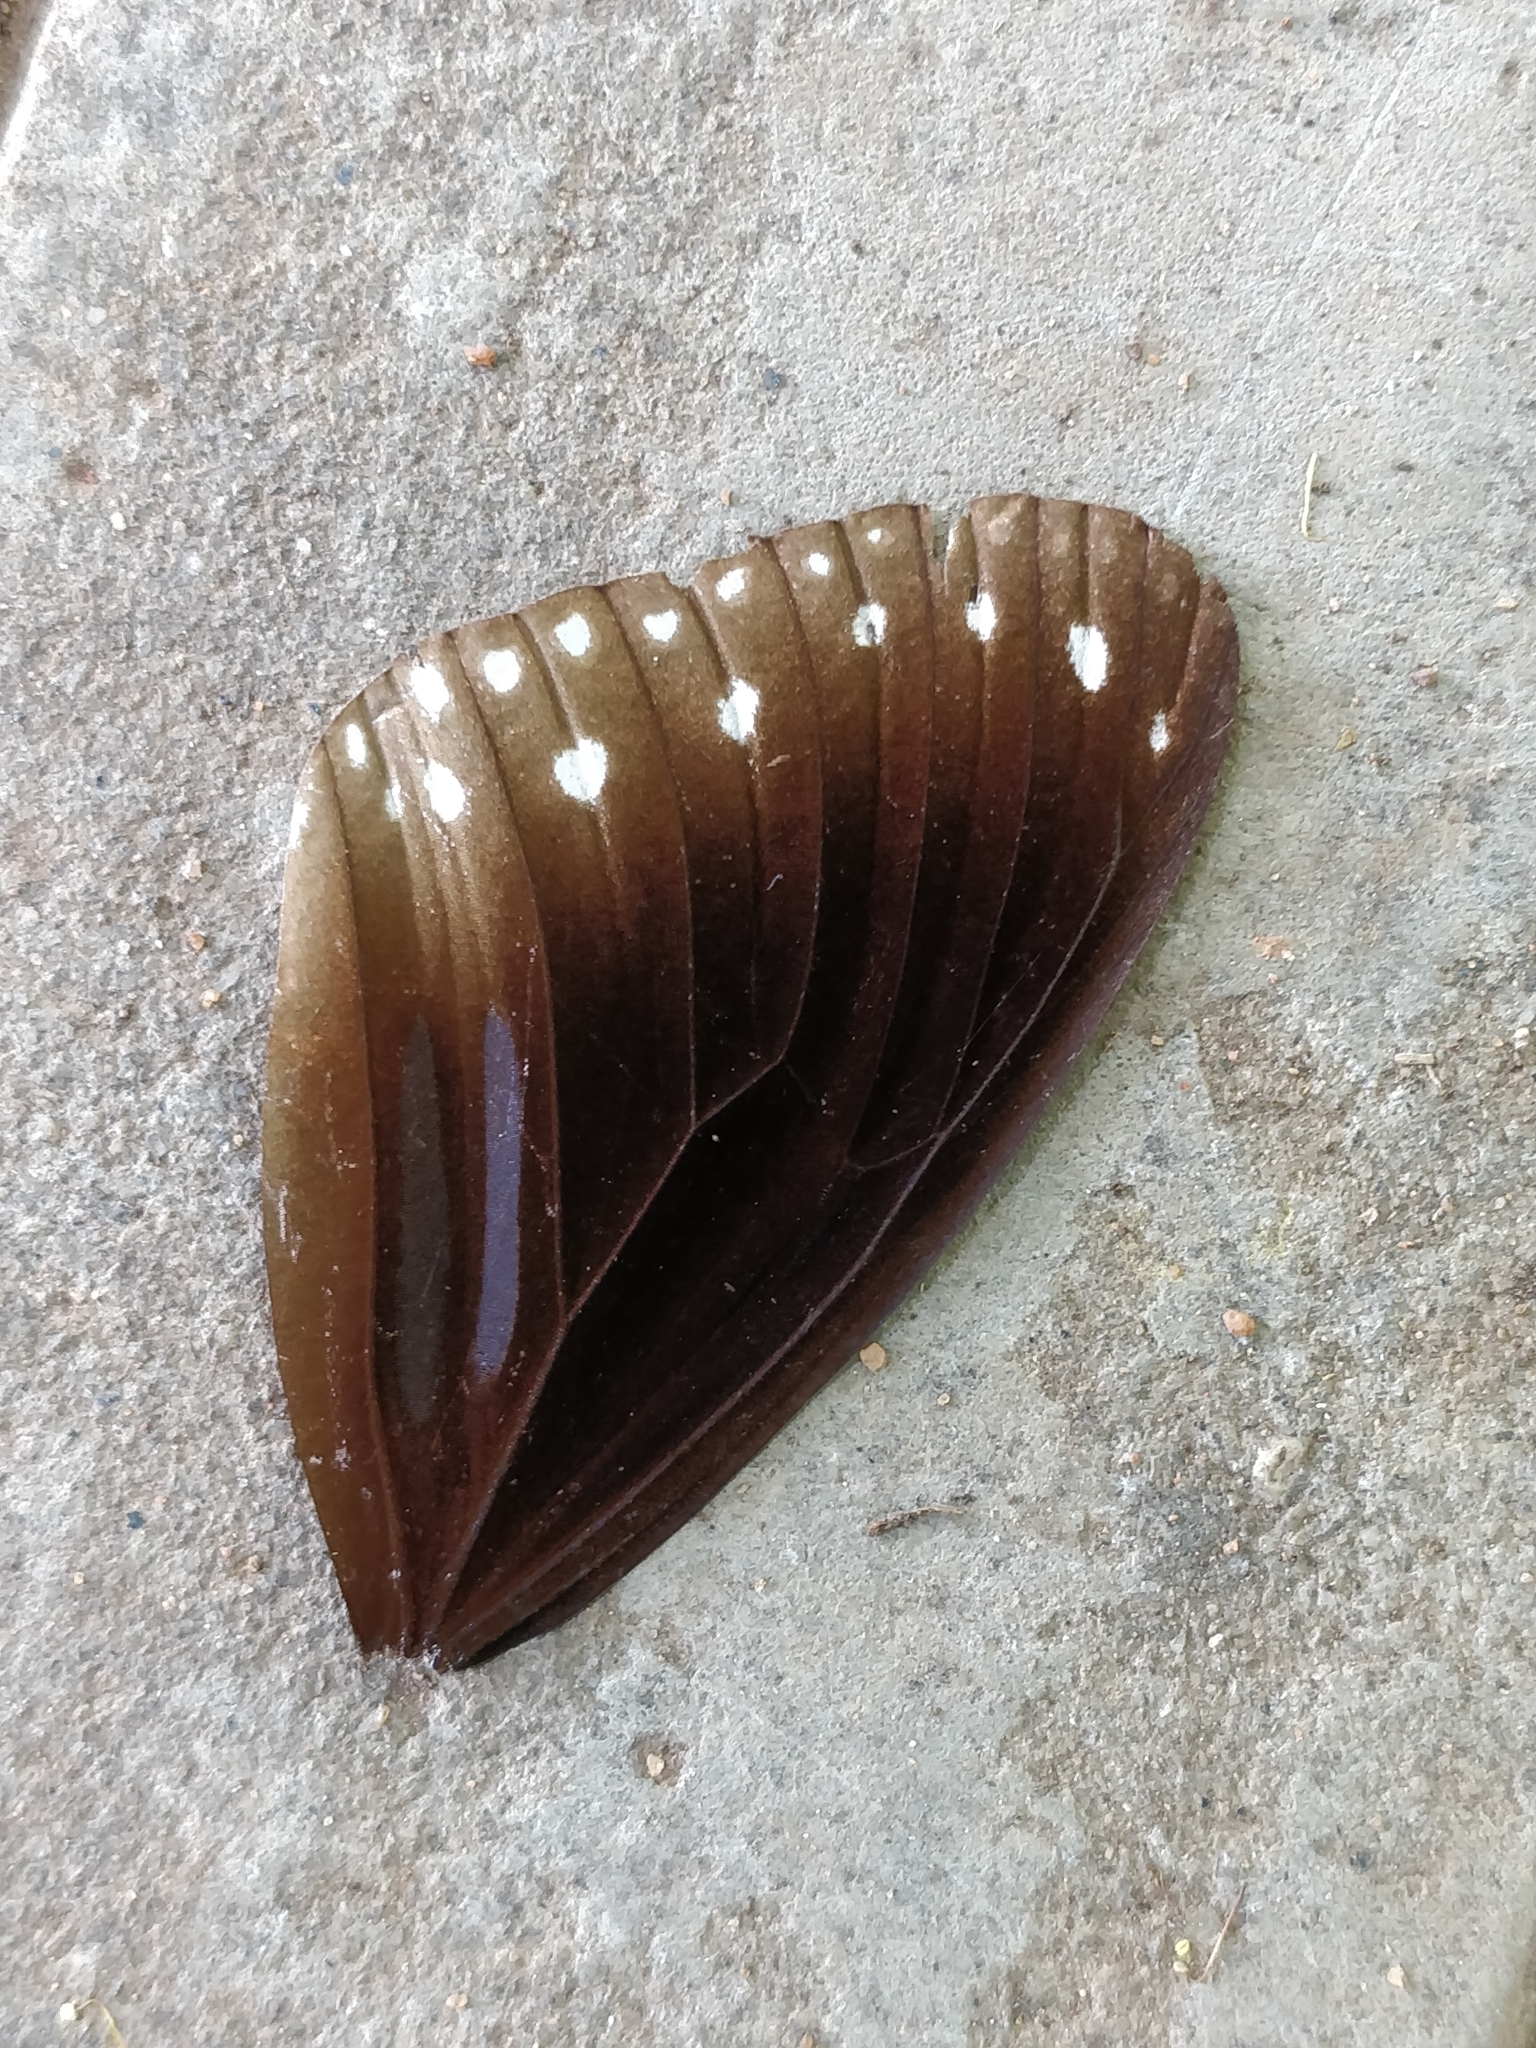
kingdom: Animalia
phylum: Arthropoda
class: Insecta
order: Lepidoptera
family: Nymphalidae
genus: Euploea
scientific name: Euploea sylvester
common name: Double-branded crow butterfly
